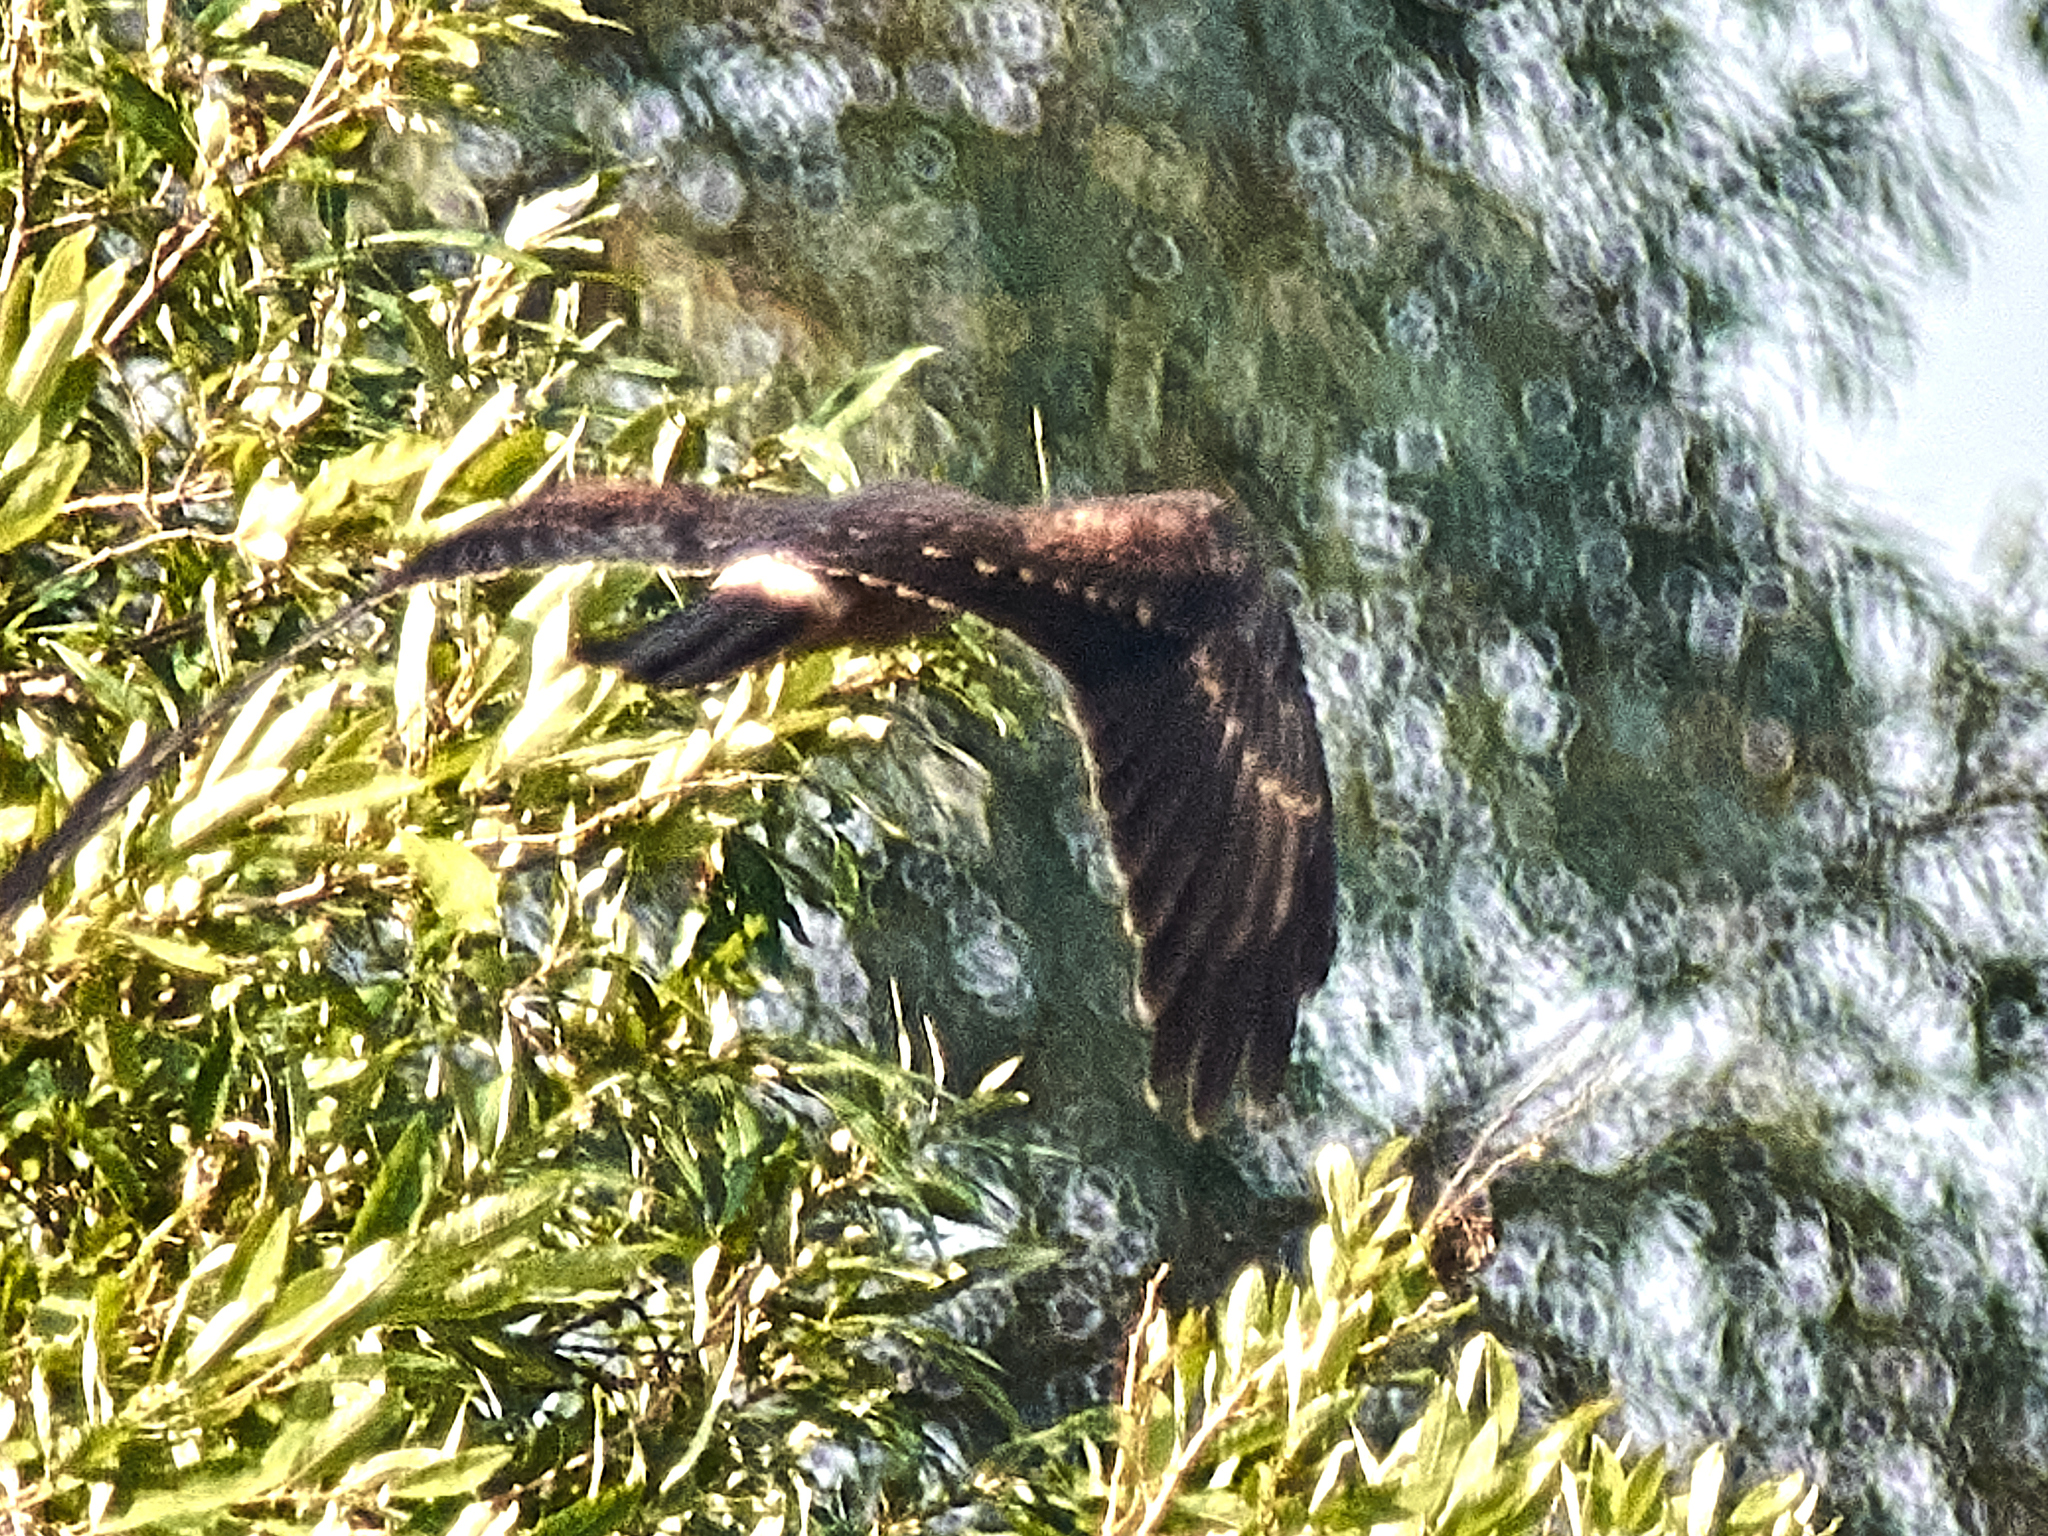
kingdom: Animalia
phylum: Chordata
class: Aves
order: Accipitriformes
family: Accipitridae
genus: Circus
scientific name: Circus pygargus
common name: Montagu's harrier
